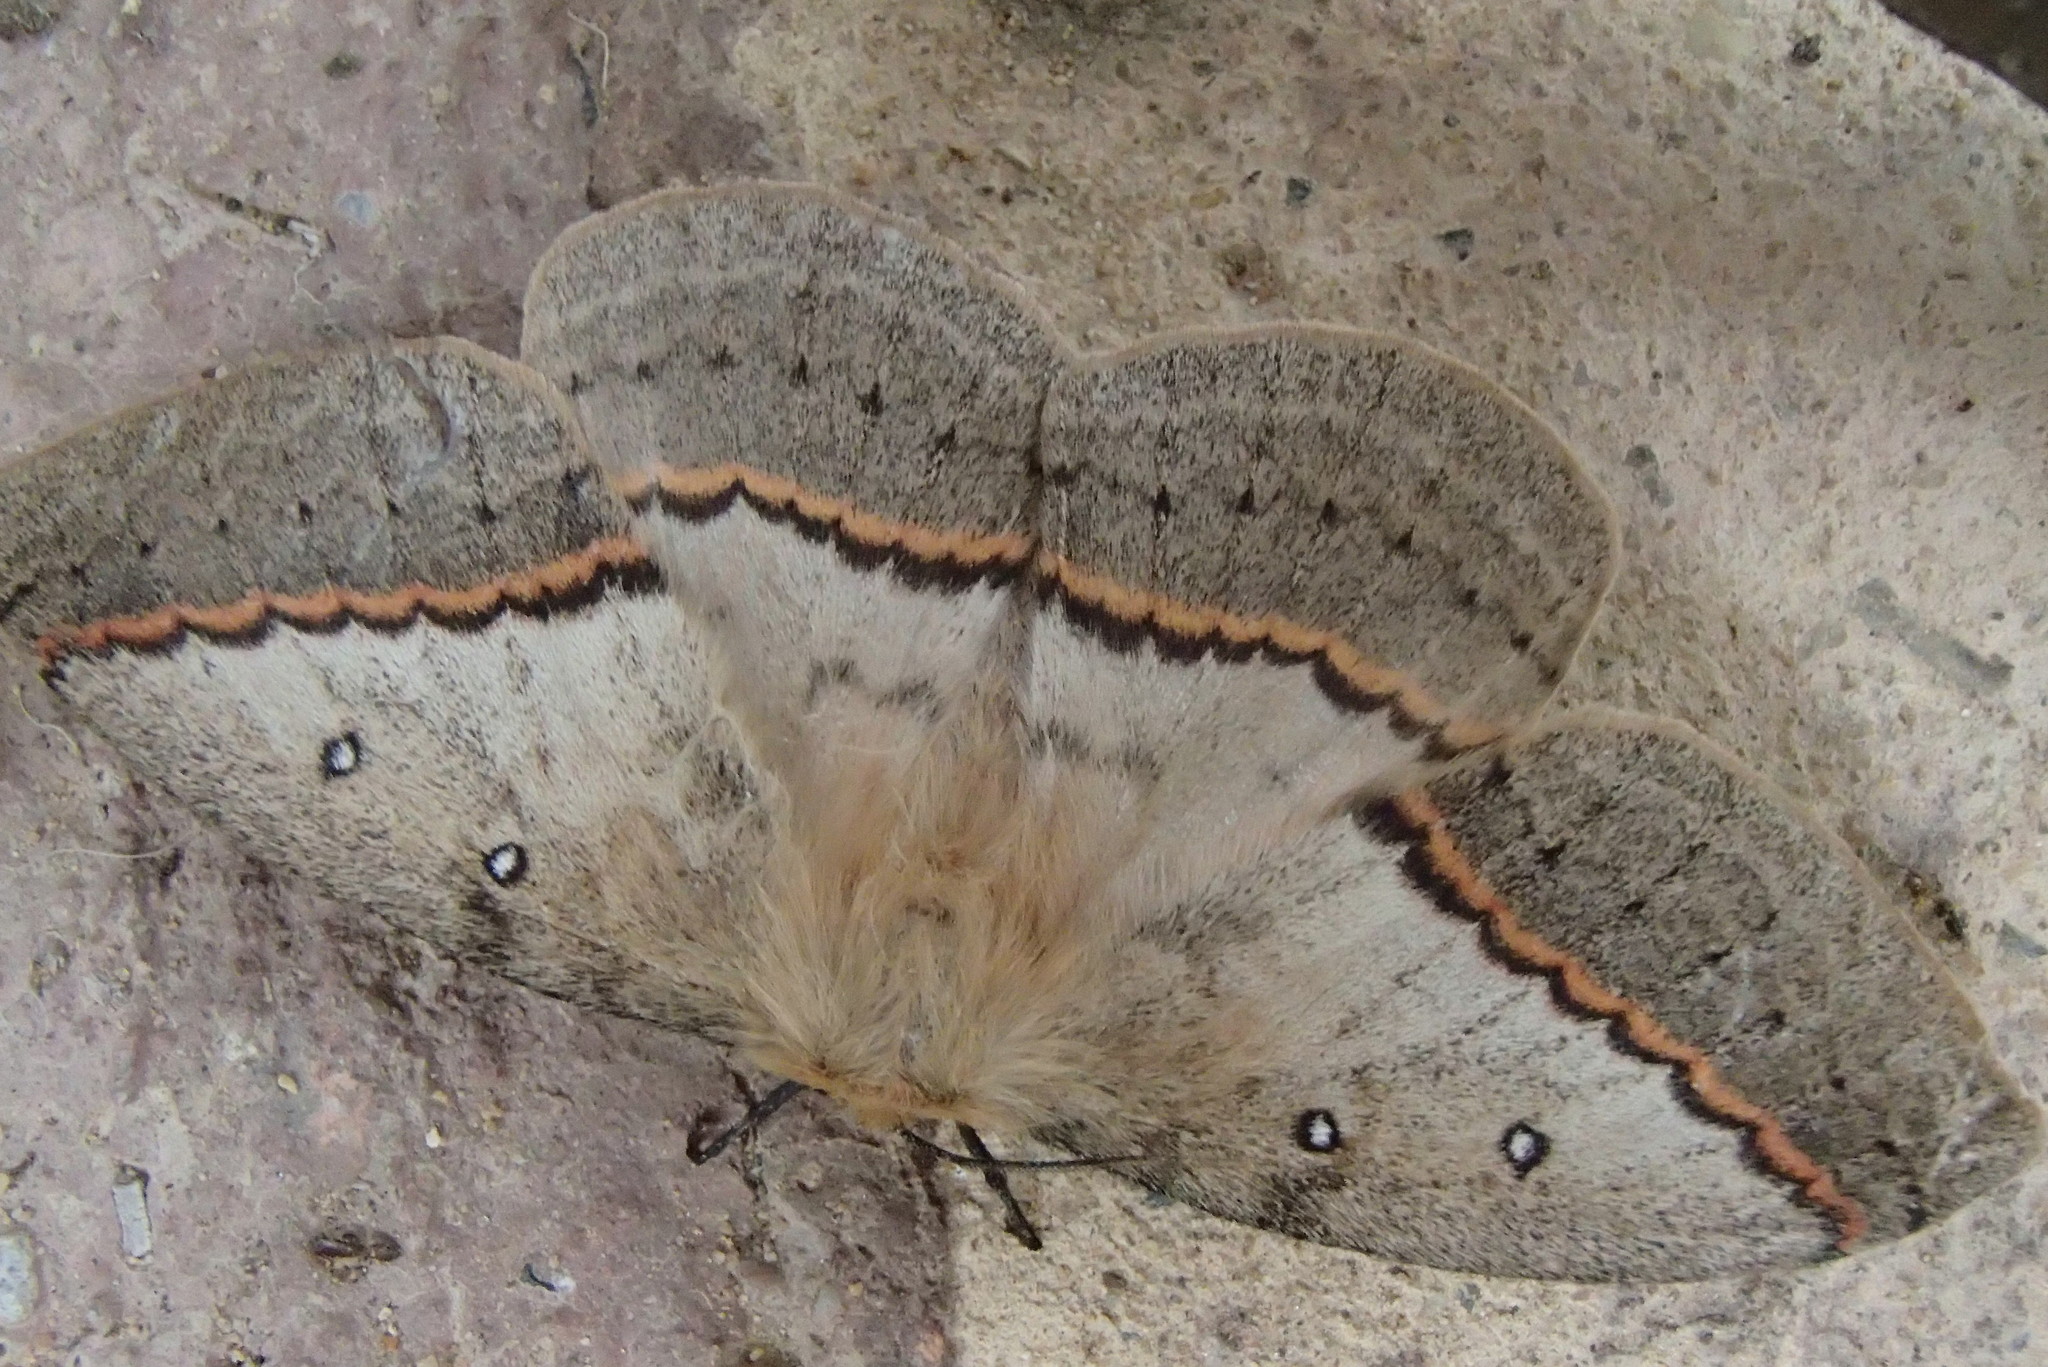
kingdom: Animalia
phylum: Arthropoda
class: Insecta
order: Lepidoptera
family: Anthelidae
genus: Anthela
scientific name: Anthela nicothoe
